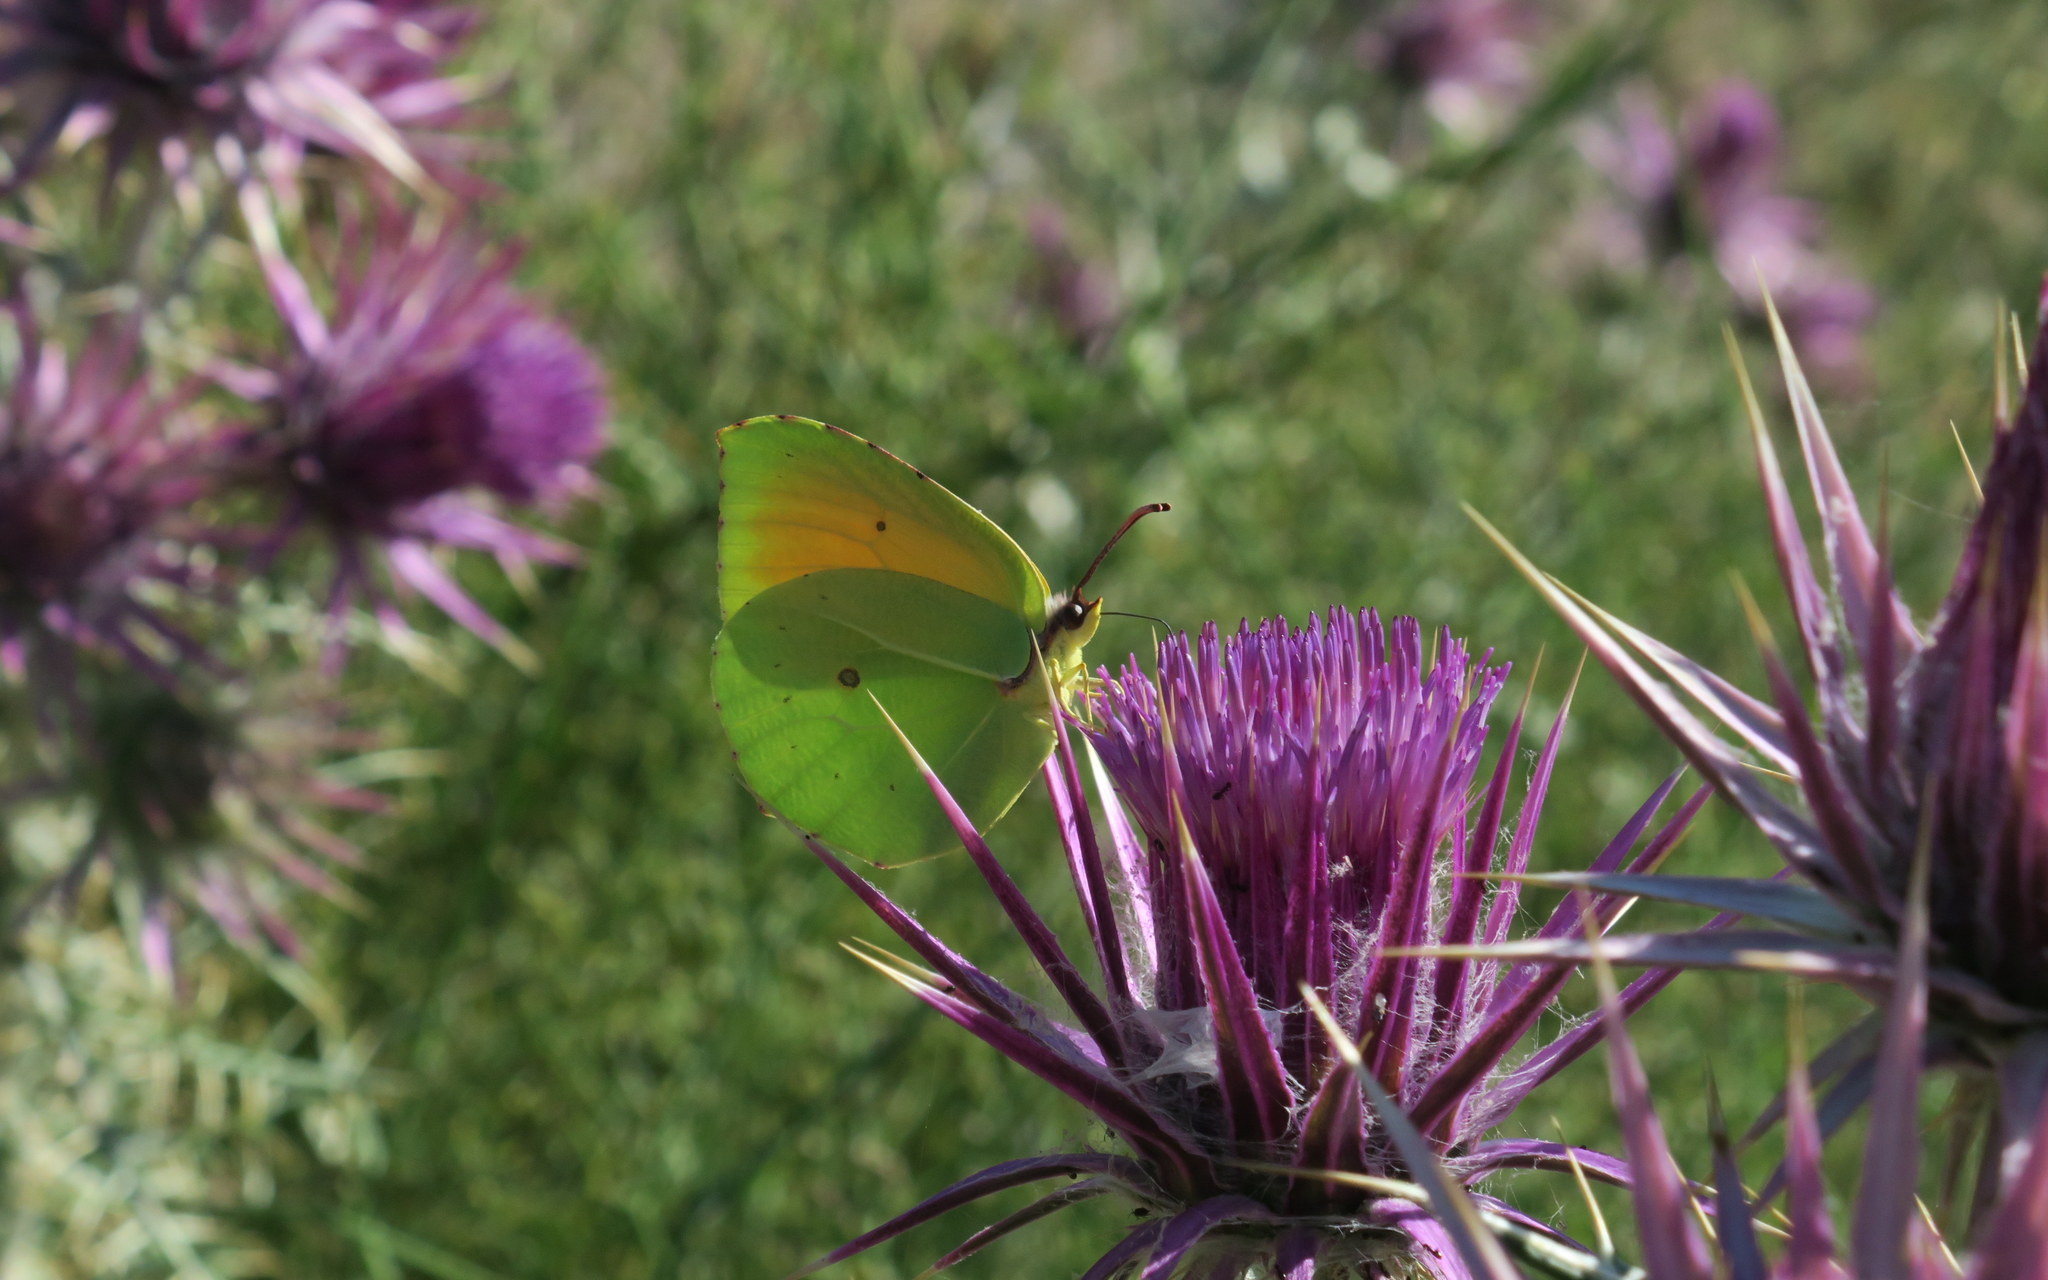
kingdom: Animalia
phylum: Arthropoda
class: Insecta
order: Lepidoptera
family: Pieridae
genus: Gonepteryx
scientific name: Gonepteryx cleopatra
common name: Cleopatra
